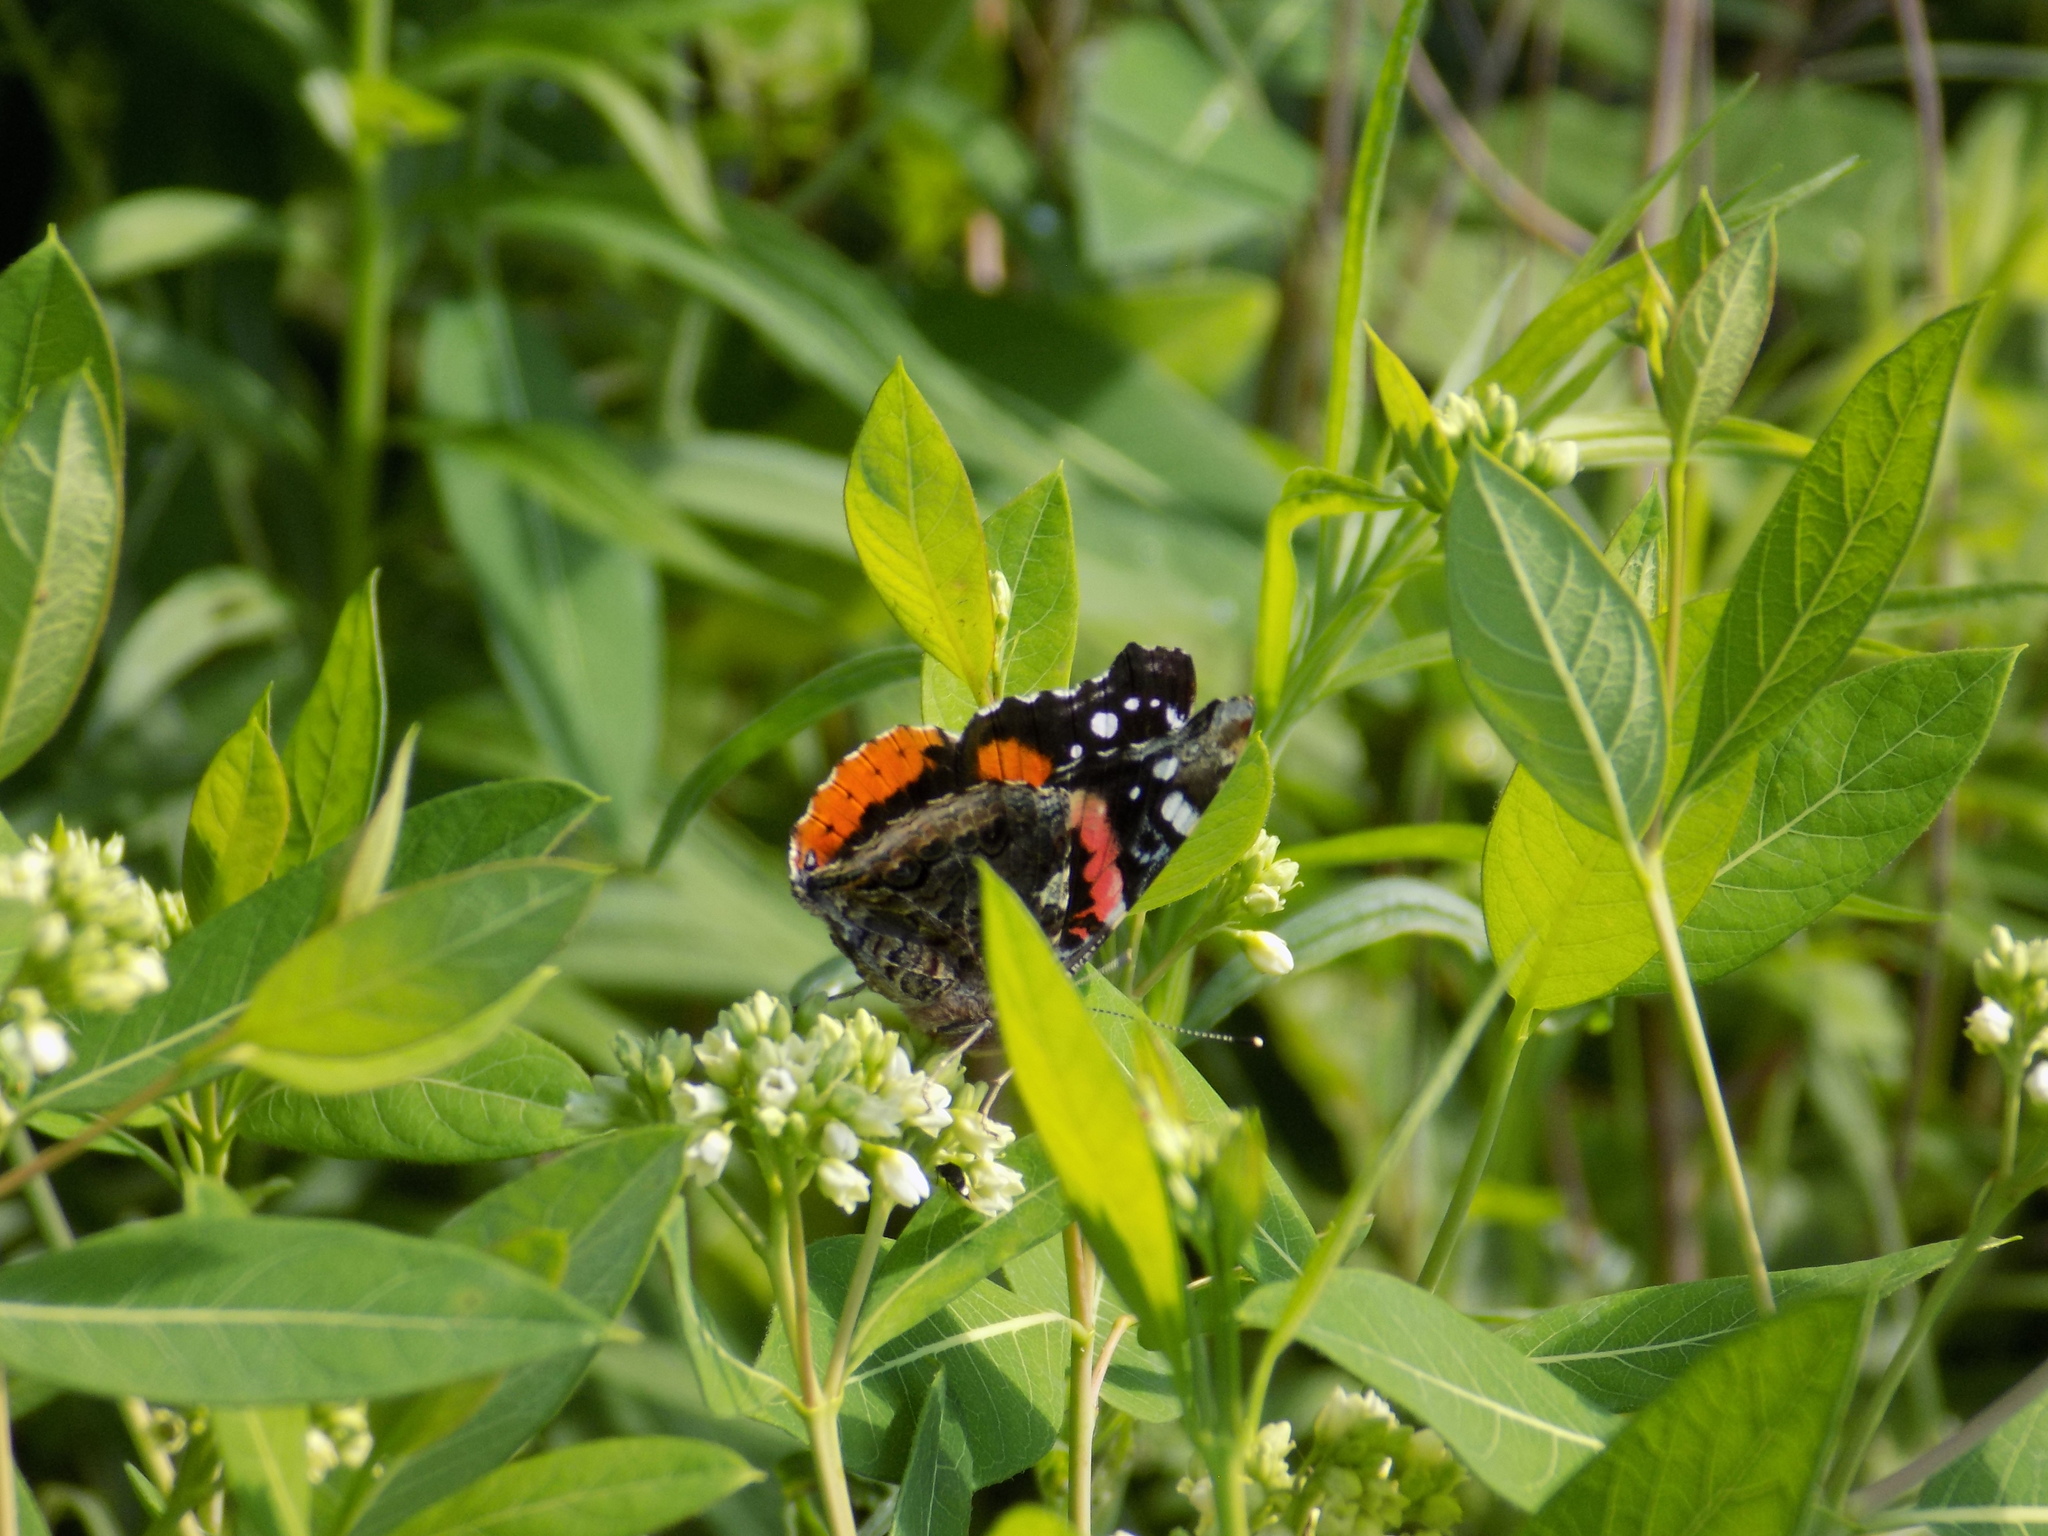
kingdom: Animalia
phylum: Arthropoda
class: Insecta
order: Lepidoptera
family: Nymphalidae
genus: Vanessa
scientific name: Vanessa atalanta
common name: Red admiral
